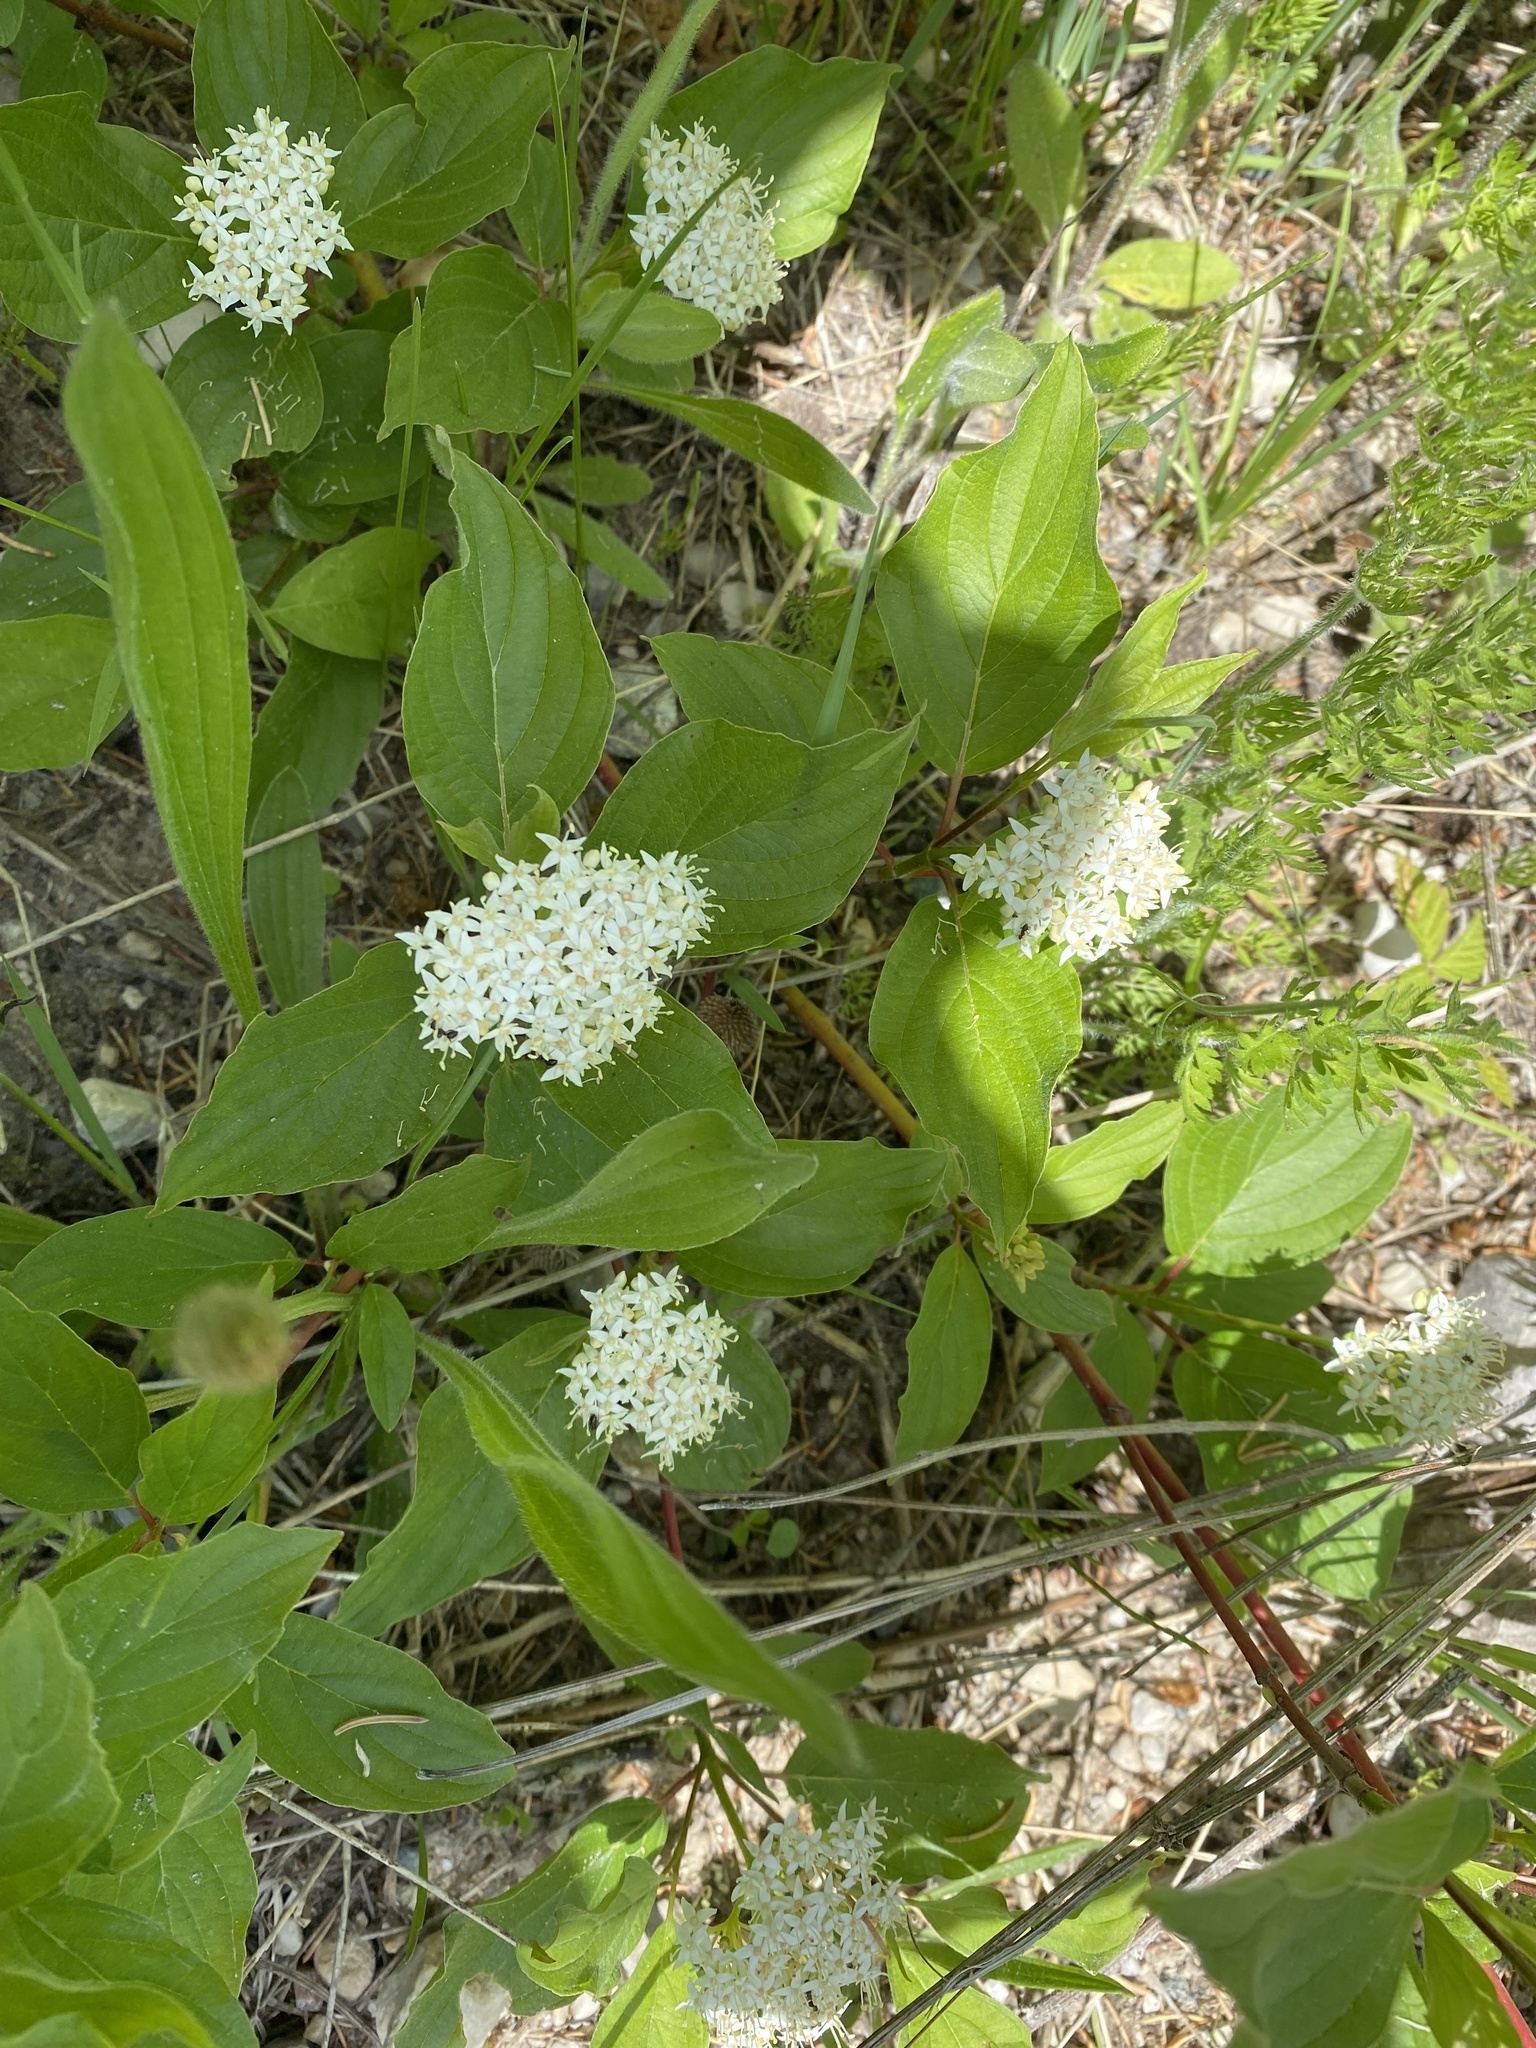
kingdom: Plantae
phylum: Tracheophyta
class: Magnoliopsida
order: Cornales
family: Cornaceae
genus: Cornus
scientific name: Cornus sericea
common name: Red-osier dogwood
